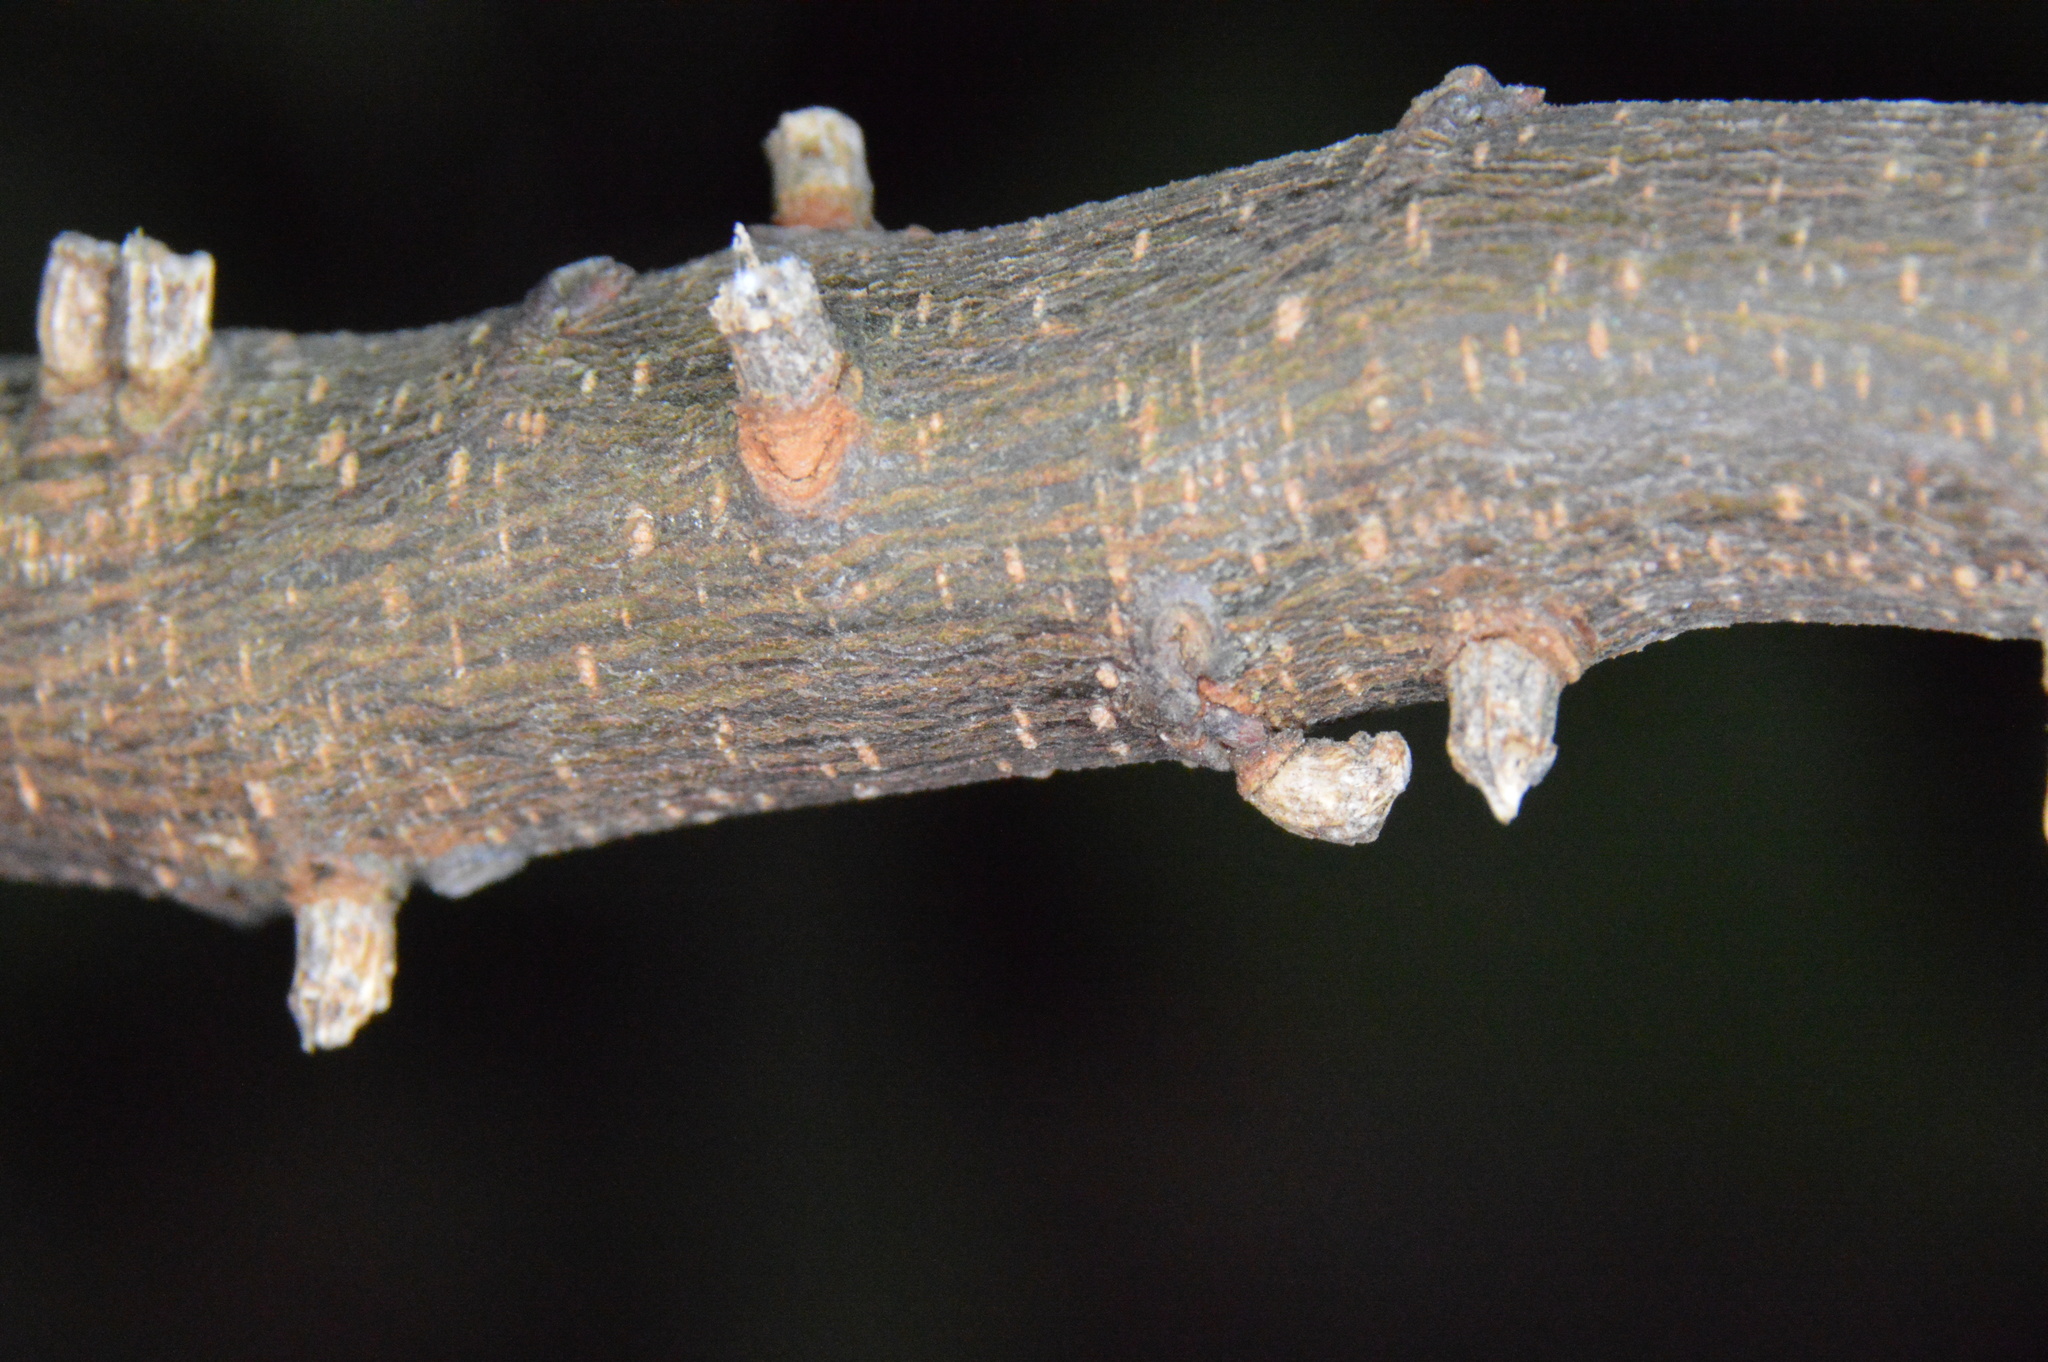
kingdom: Animalia
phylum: Arthropoda
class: Insecta
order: Diptera
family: Cecidomyiidae
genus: Celticecis
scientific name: Celticecis ramicola
